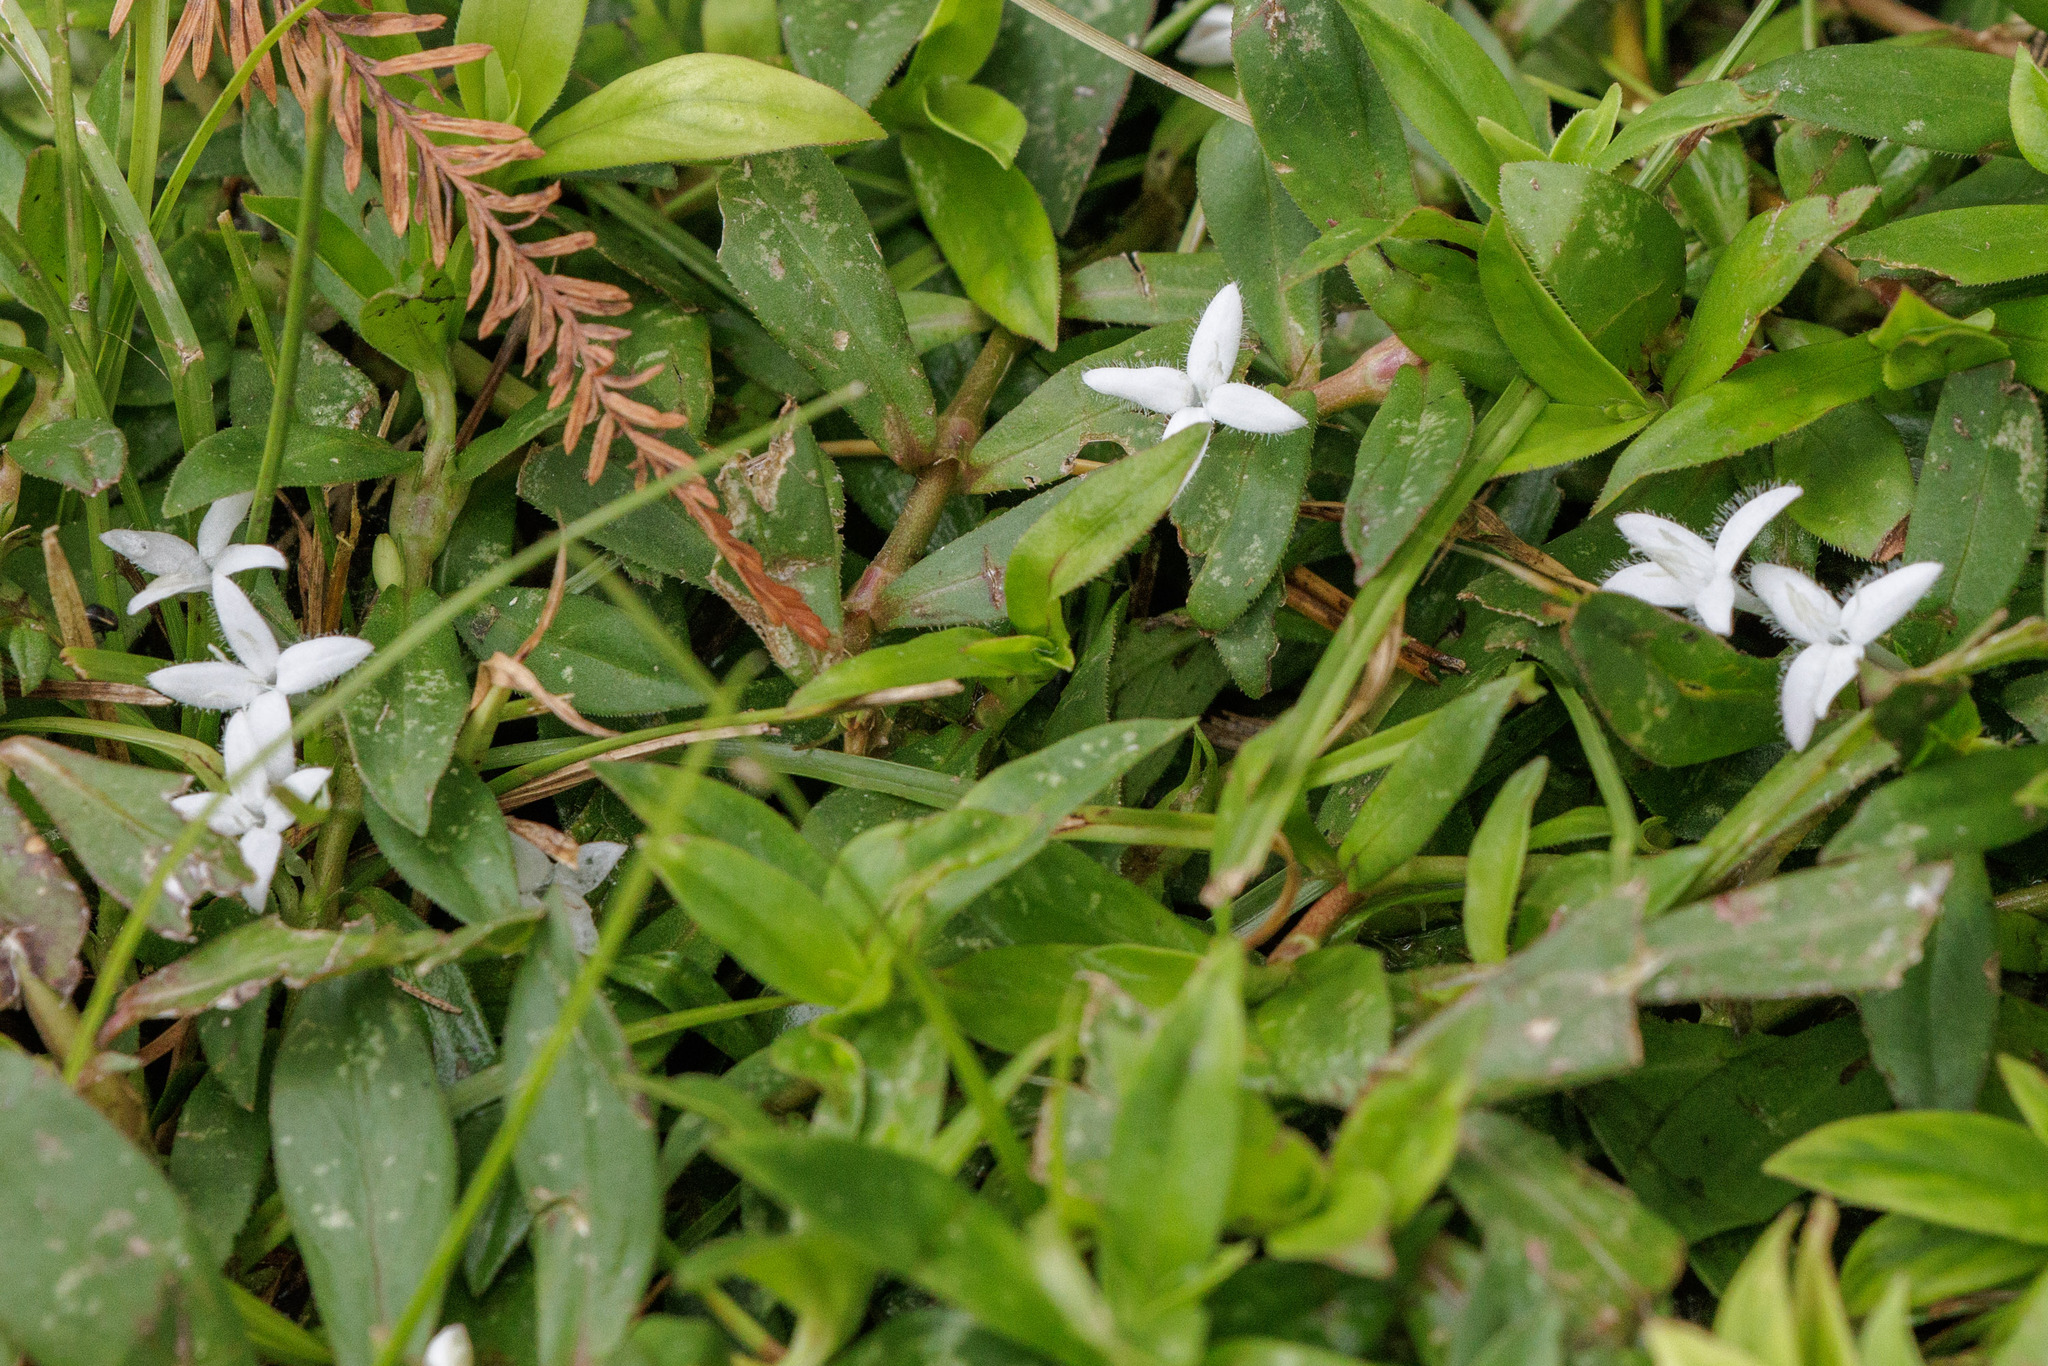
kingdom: Plantae
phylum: Tracheophyta
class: Magnoliopsida
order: Gentianales
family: Rubiaceae
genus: Diodia
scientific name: Diodia virginiana
